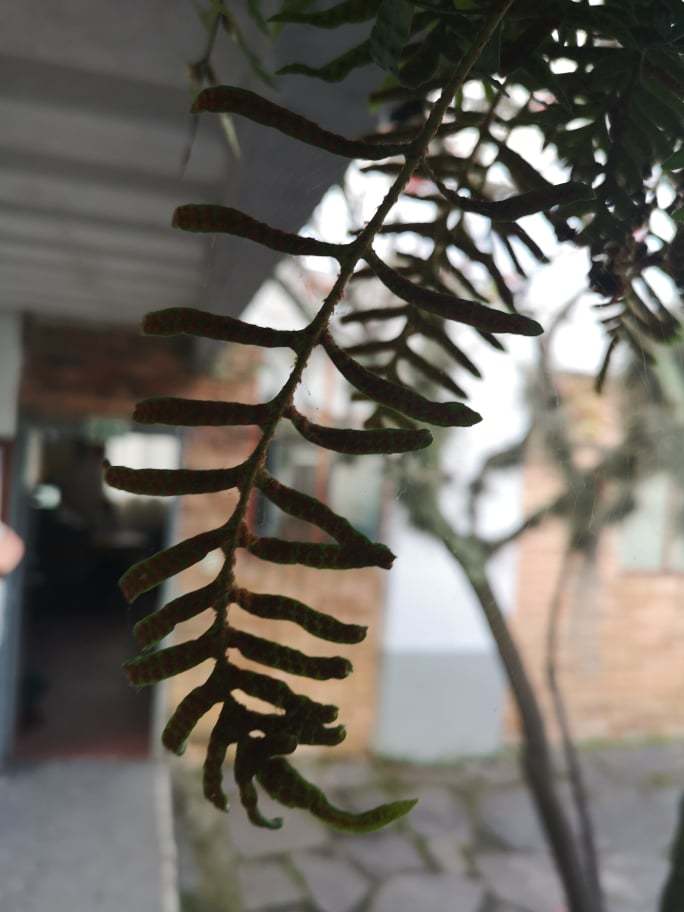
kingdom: Plantae
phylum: Tracheophyta
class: Polypodiopsida
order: Polypodiales
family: Polypodiaceae
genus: Pleopeltis
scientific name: Pleopeltis orientalis
